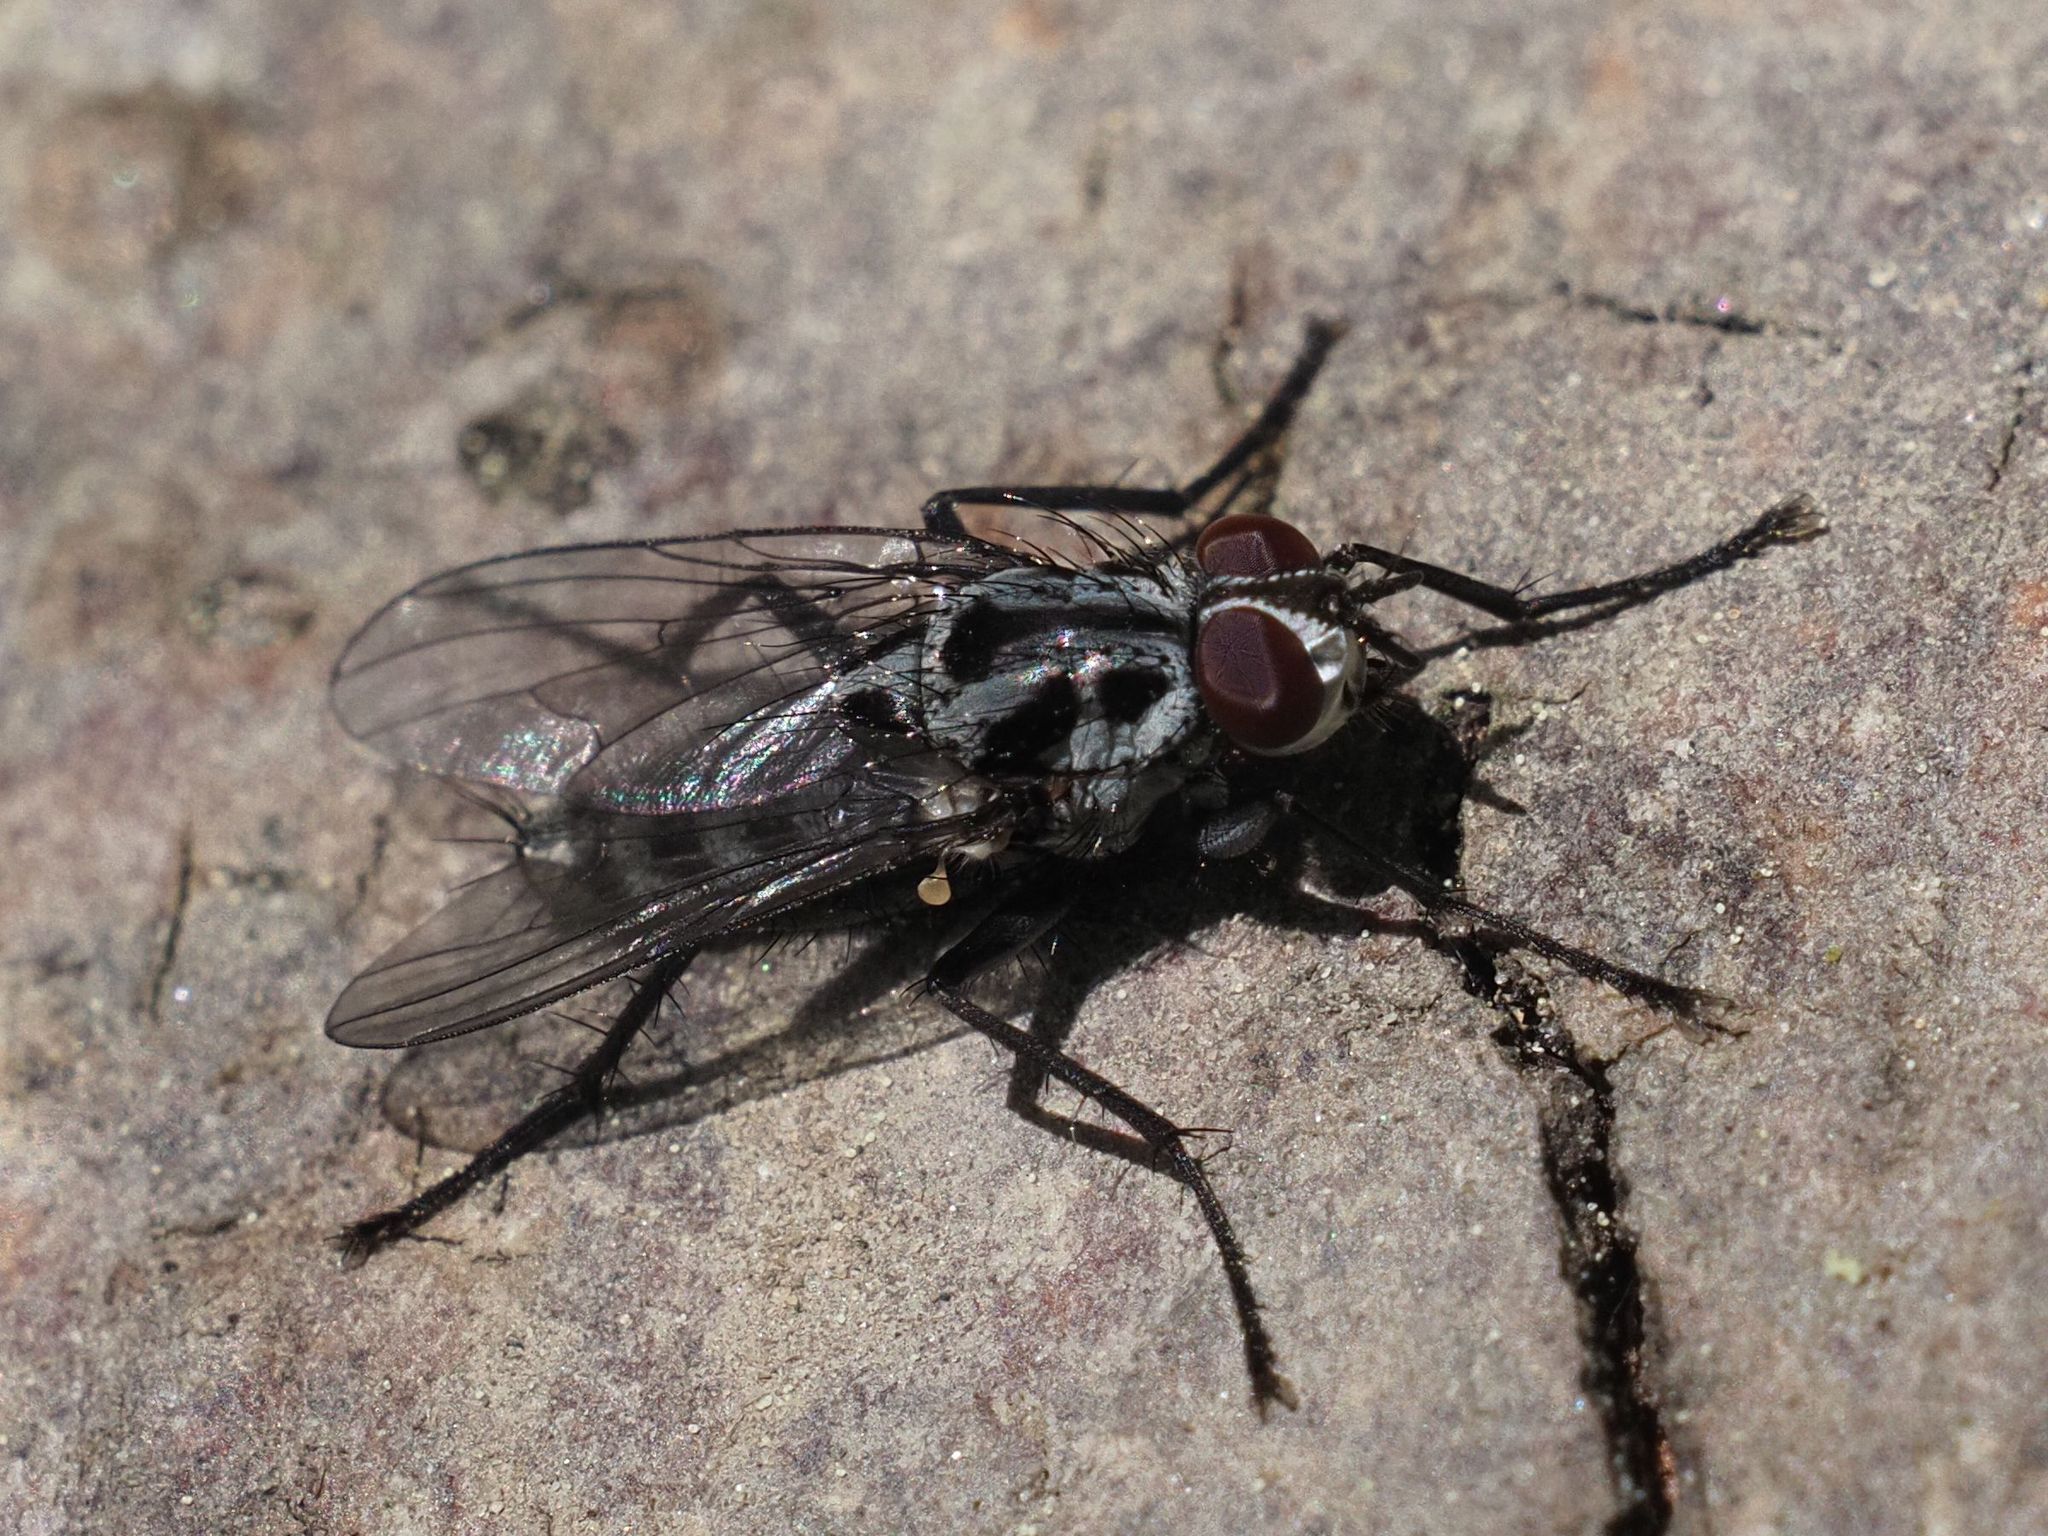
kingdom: Animalia
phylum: Arthropoda
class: Insecta
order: Diptera
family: Anthomyiidae
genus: Eustalomyia
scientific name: Eustalomyia hilaris
